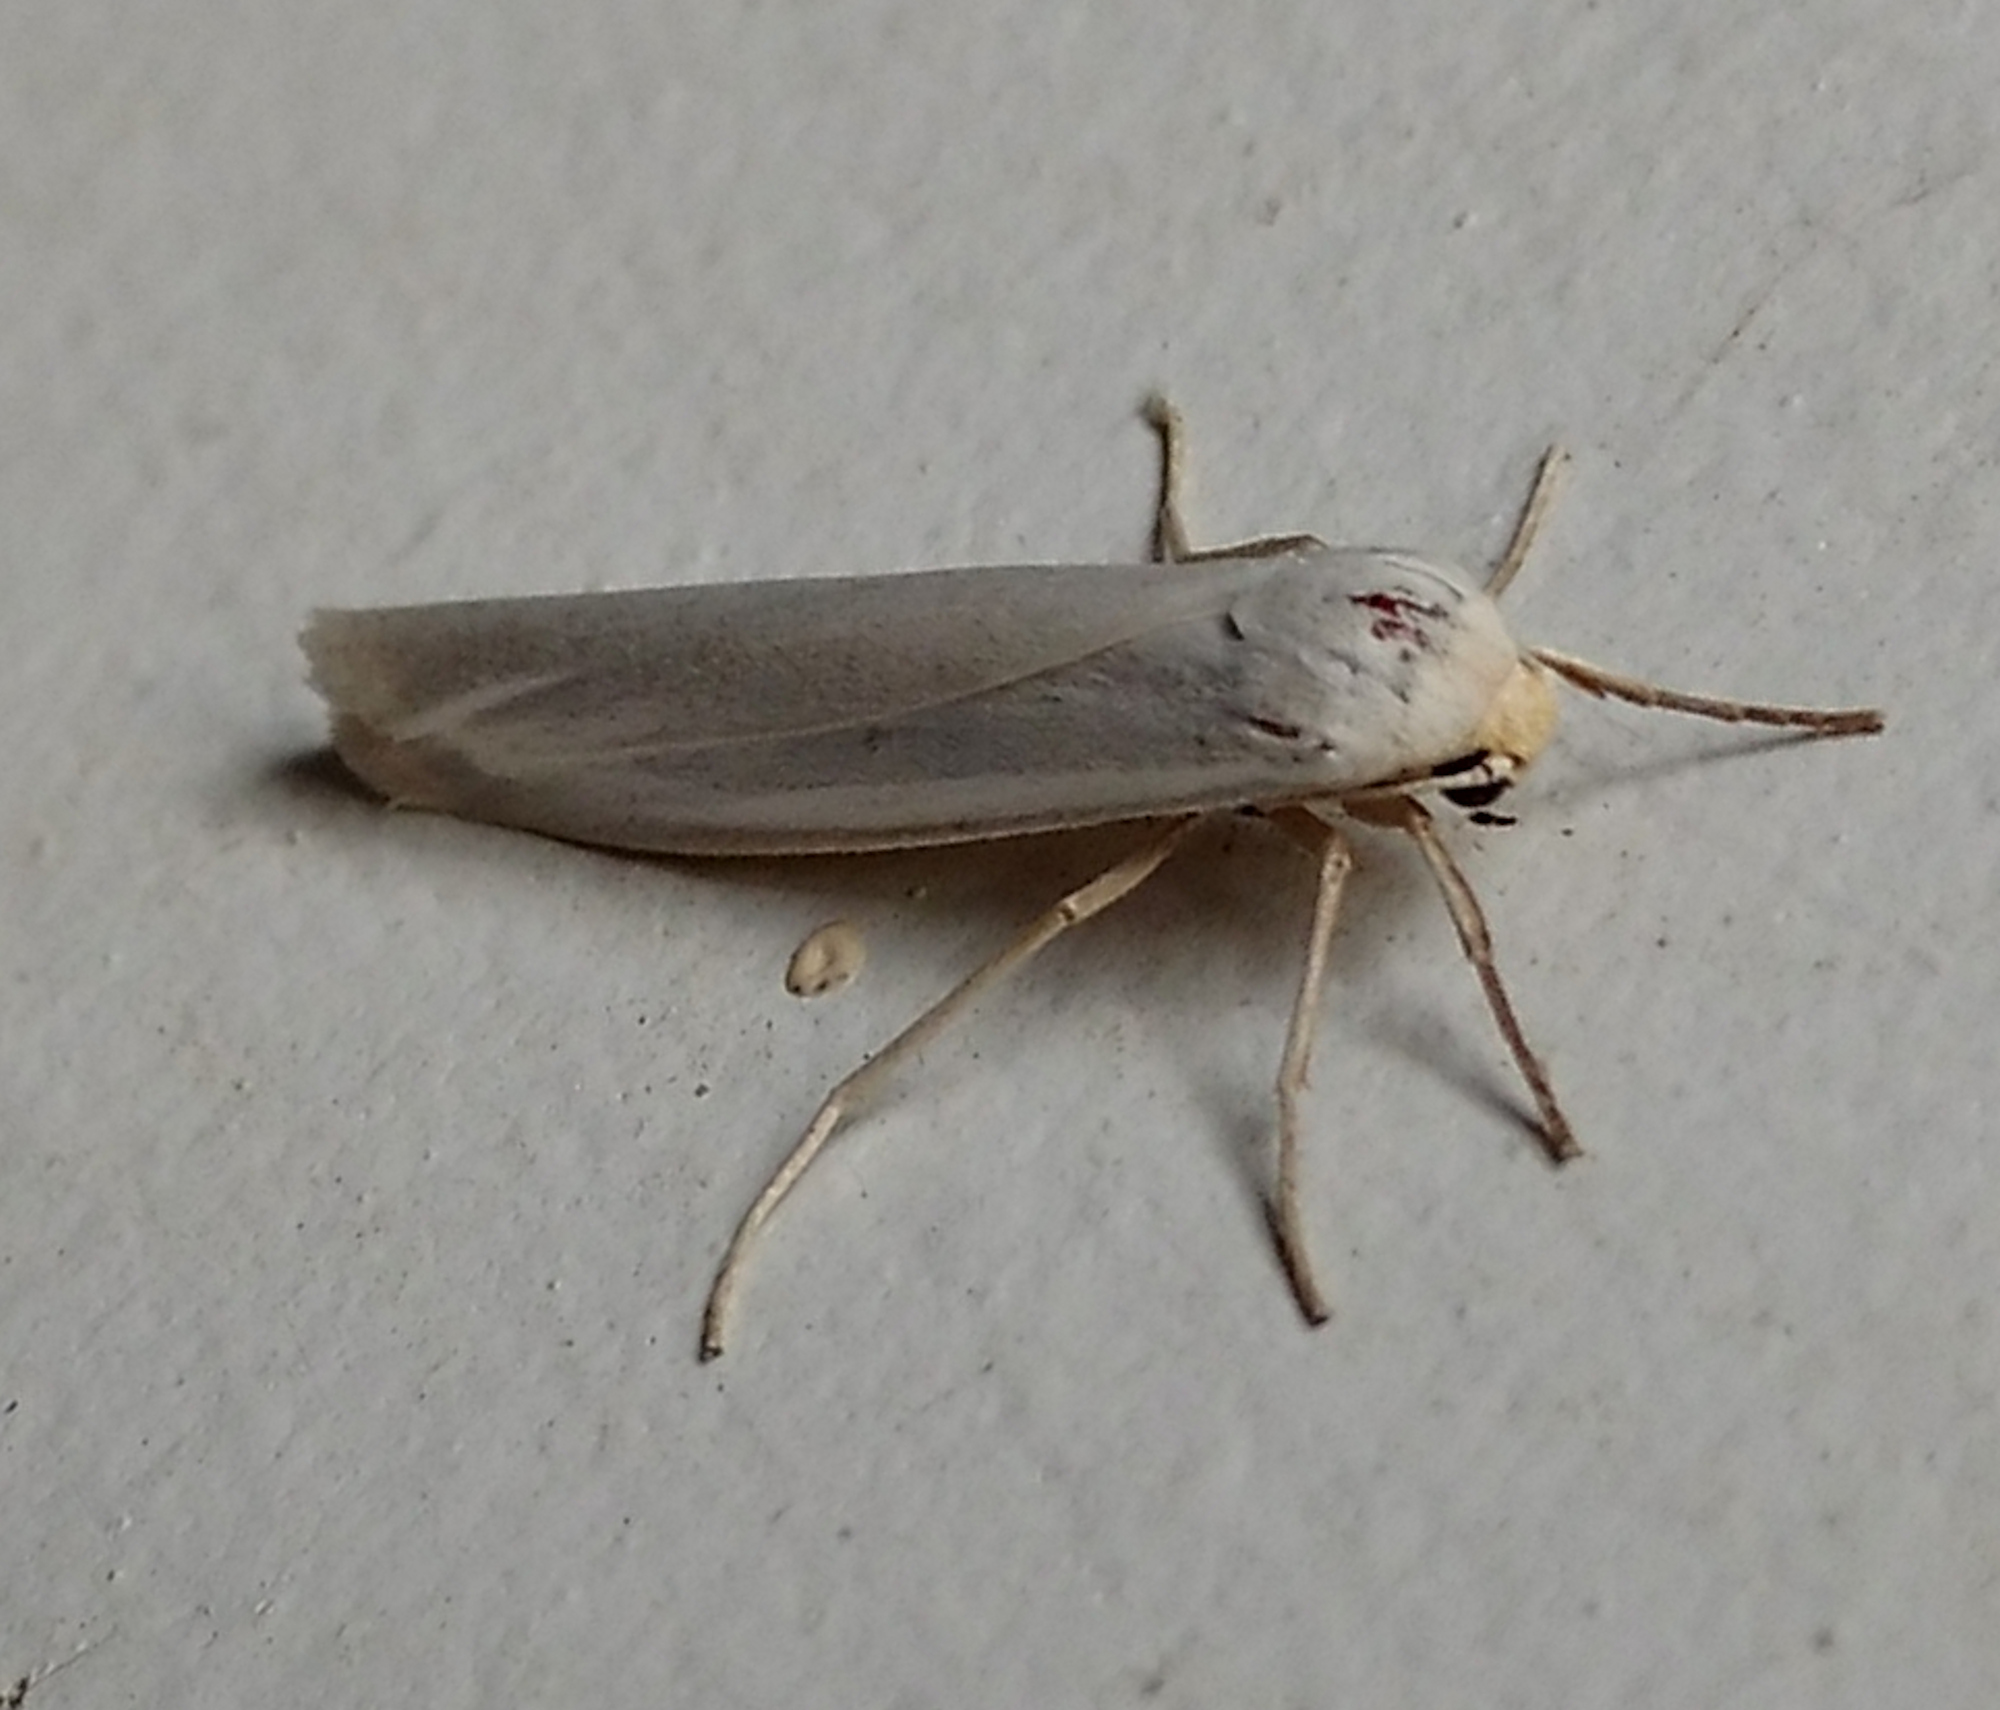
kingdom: Animalia
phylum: Arthropoda
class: Insecta
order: Lepidoptera
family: Erebidae
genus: Crambidia
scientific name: Crambidia cephalica
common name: Yellow-headed lichen moth
